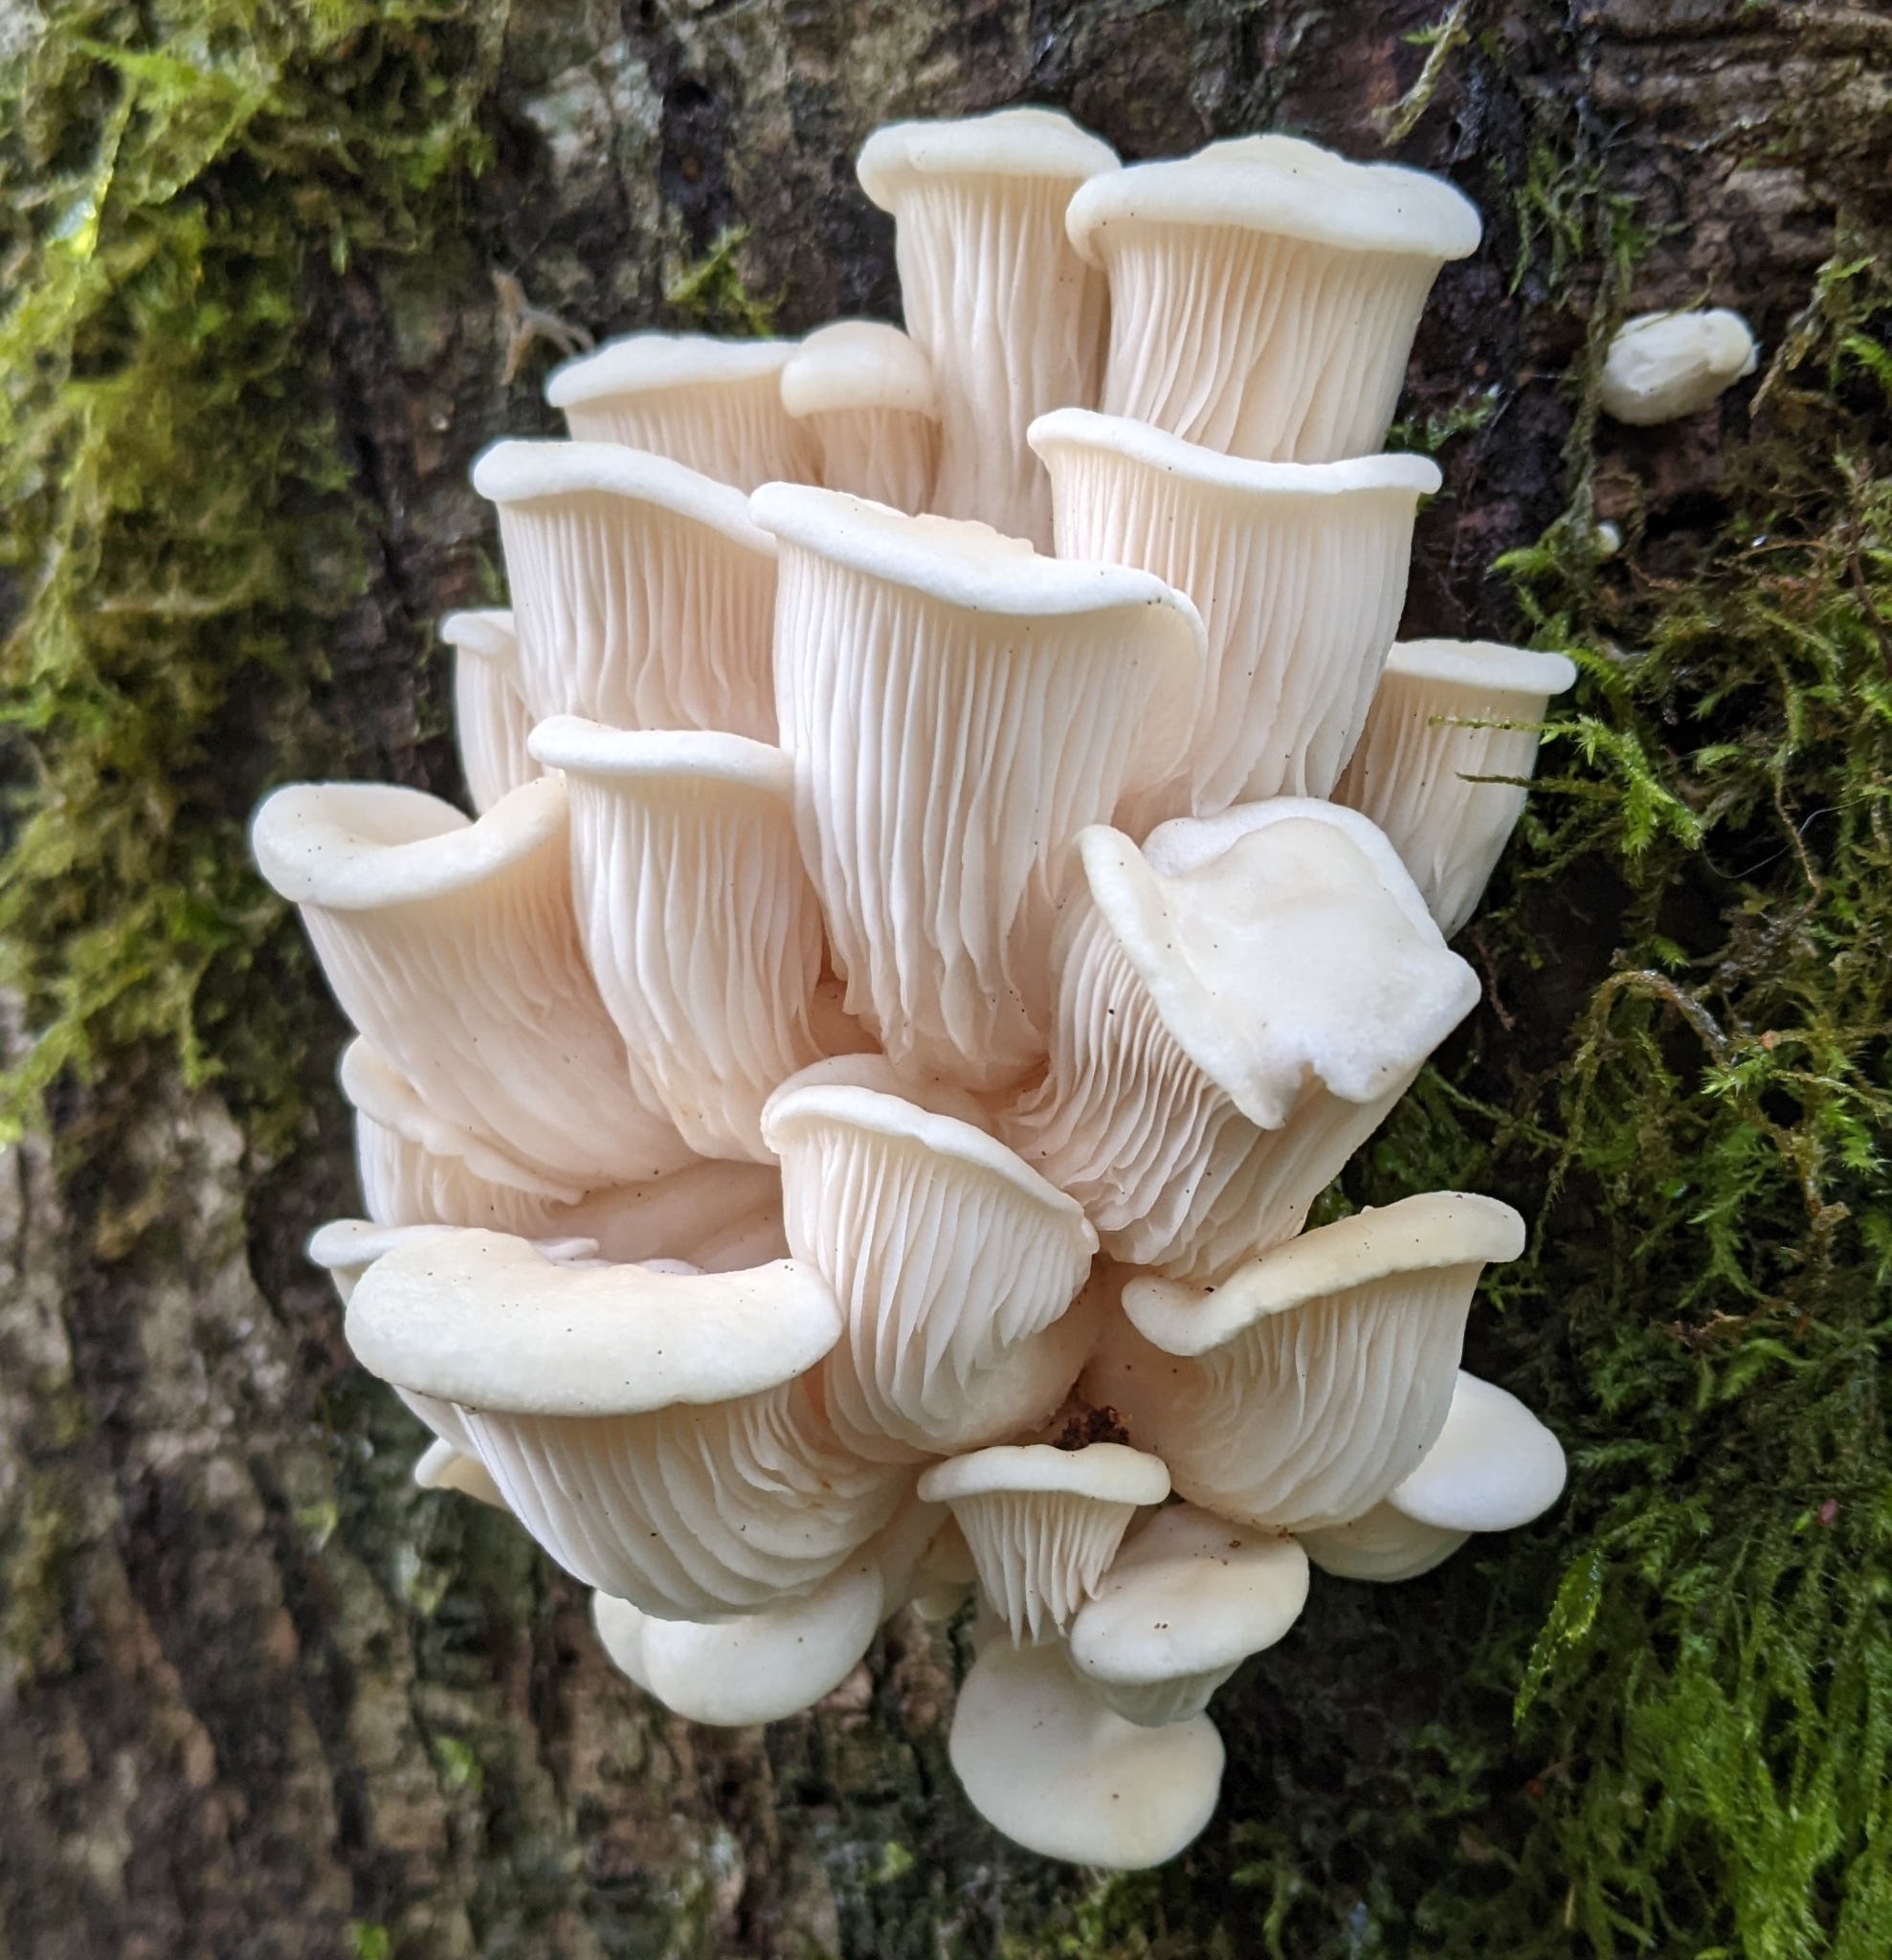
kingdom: Fungi
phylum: Basidiomycota
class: Agaricomycetes
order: Agaricales
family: Pleurotaceae
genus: Pleurotus
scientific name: Pleurotus pulmonarius
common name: Pale oyster
